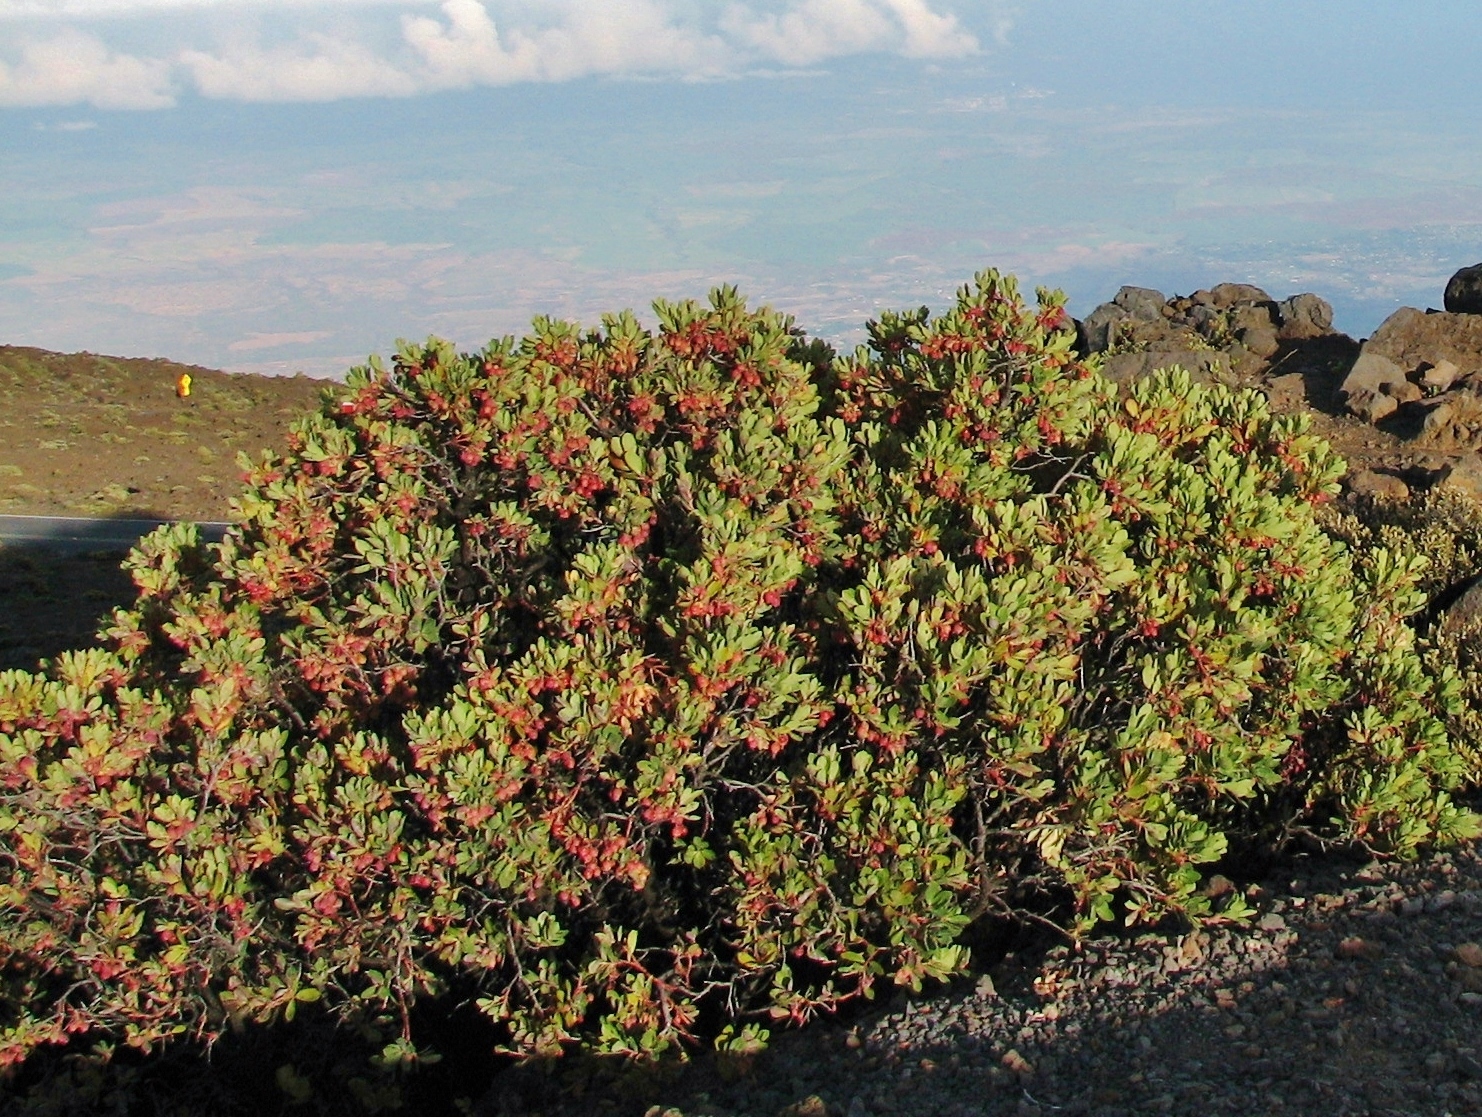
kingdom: Plantae
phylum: Tracheophyta
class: Magnoliopsida
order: Ericales
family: Ericaceae
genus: Vaccinium
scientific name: Vaccinium reticulatum
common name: Ohelo
